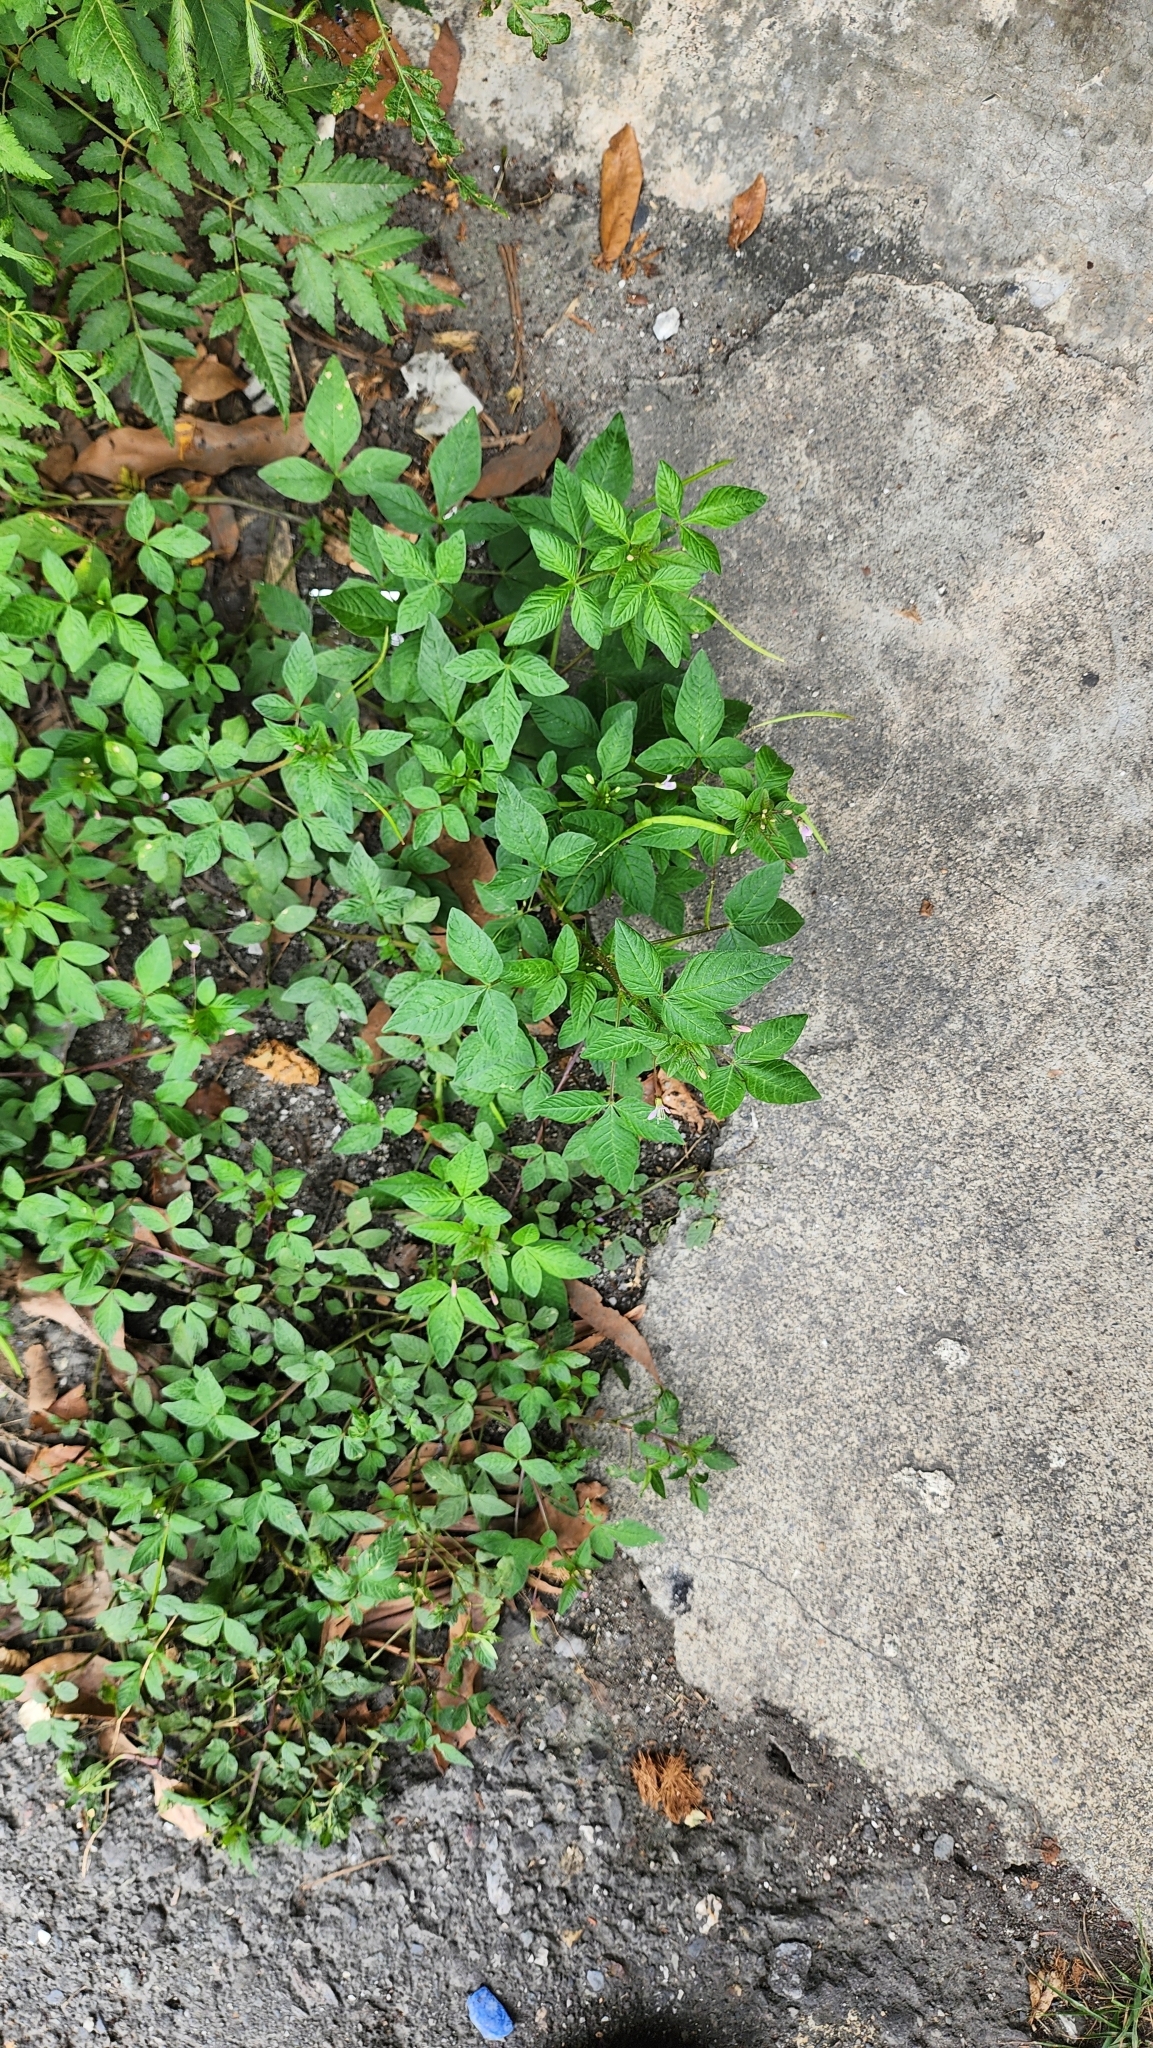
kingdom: Plantae
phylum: Tracheophyta
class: Magnoliopsida
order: Brassicales
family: Cleomaceae
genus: Sieruela
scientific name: Sieruela rutidosperma
